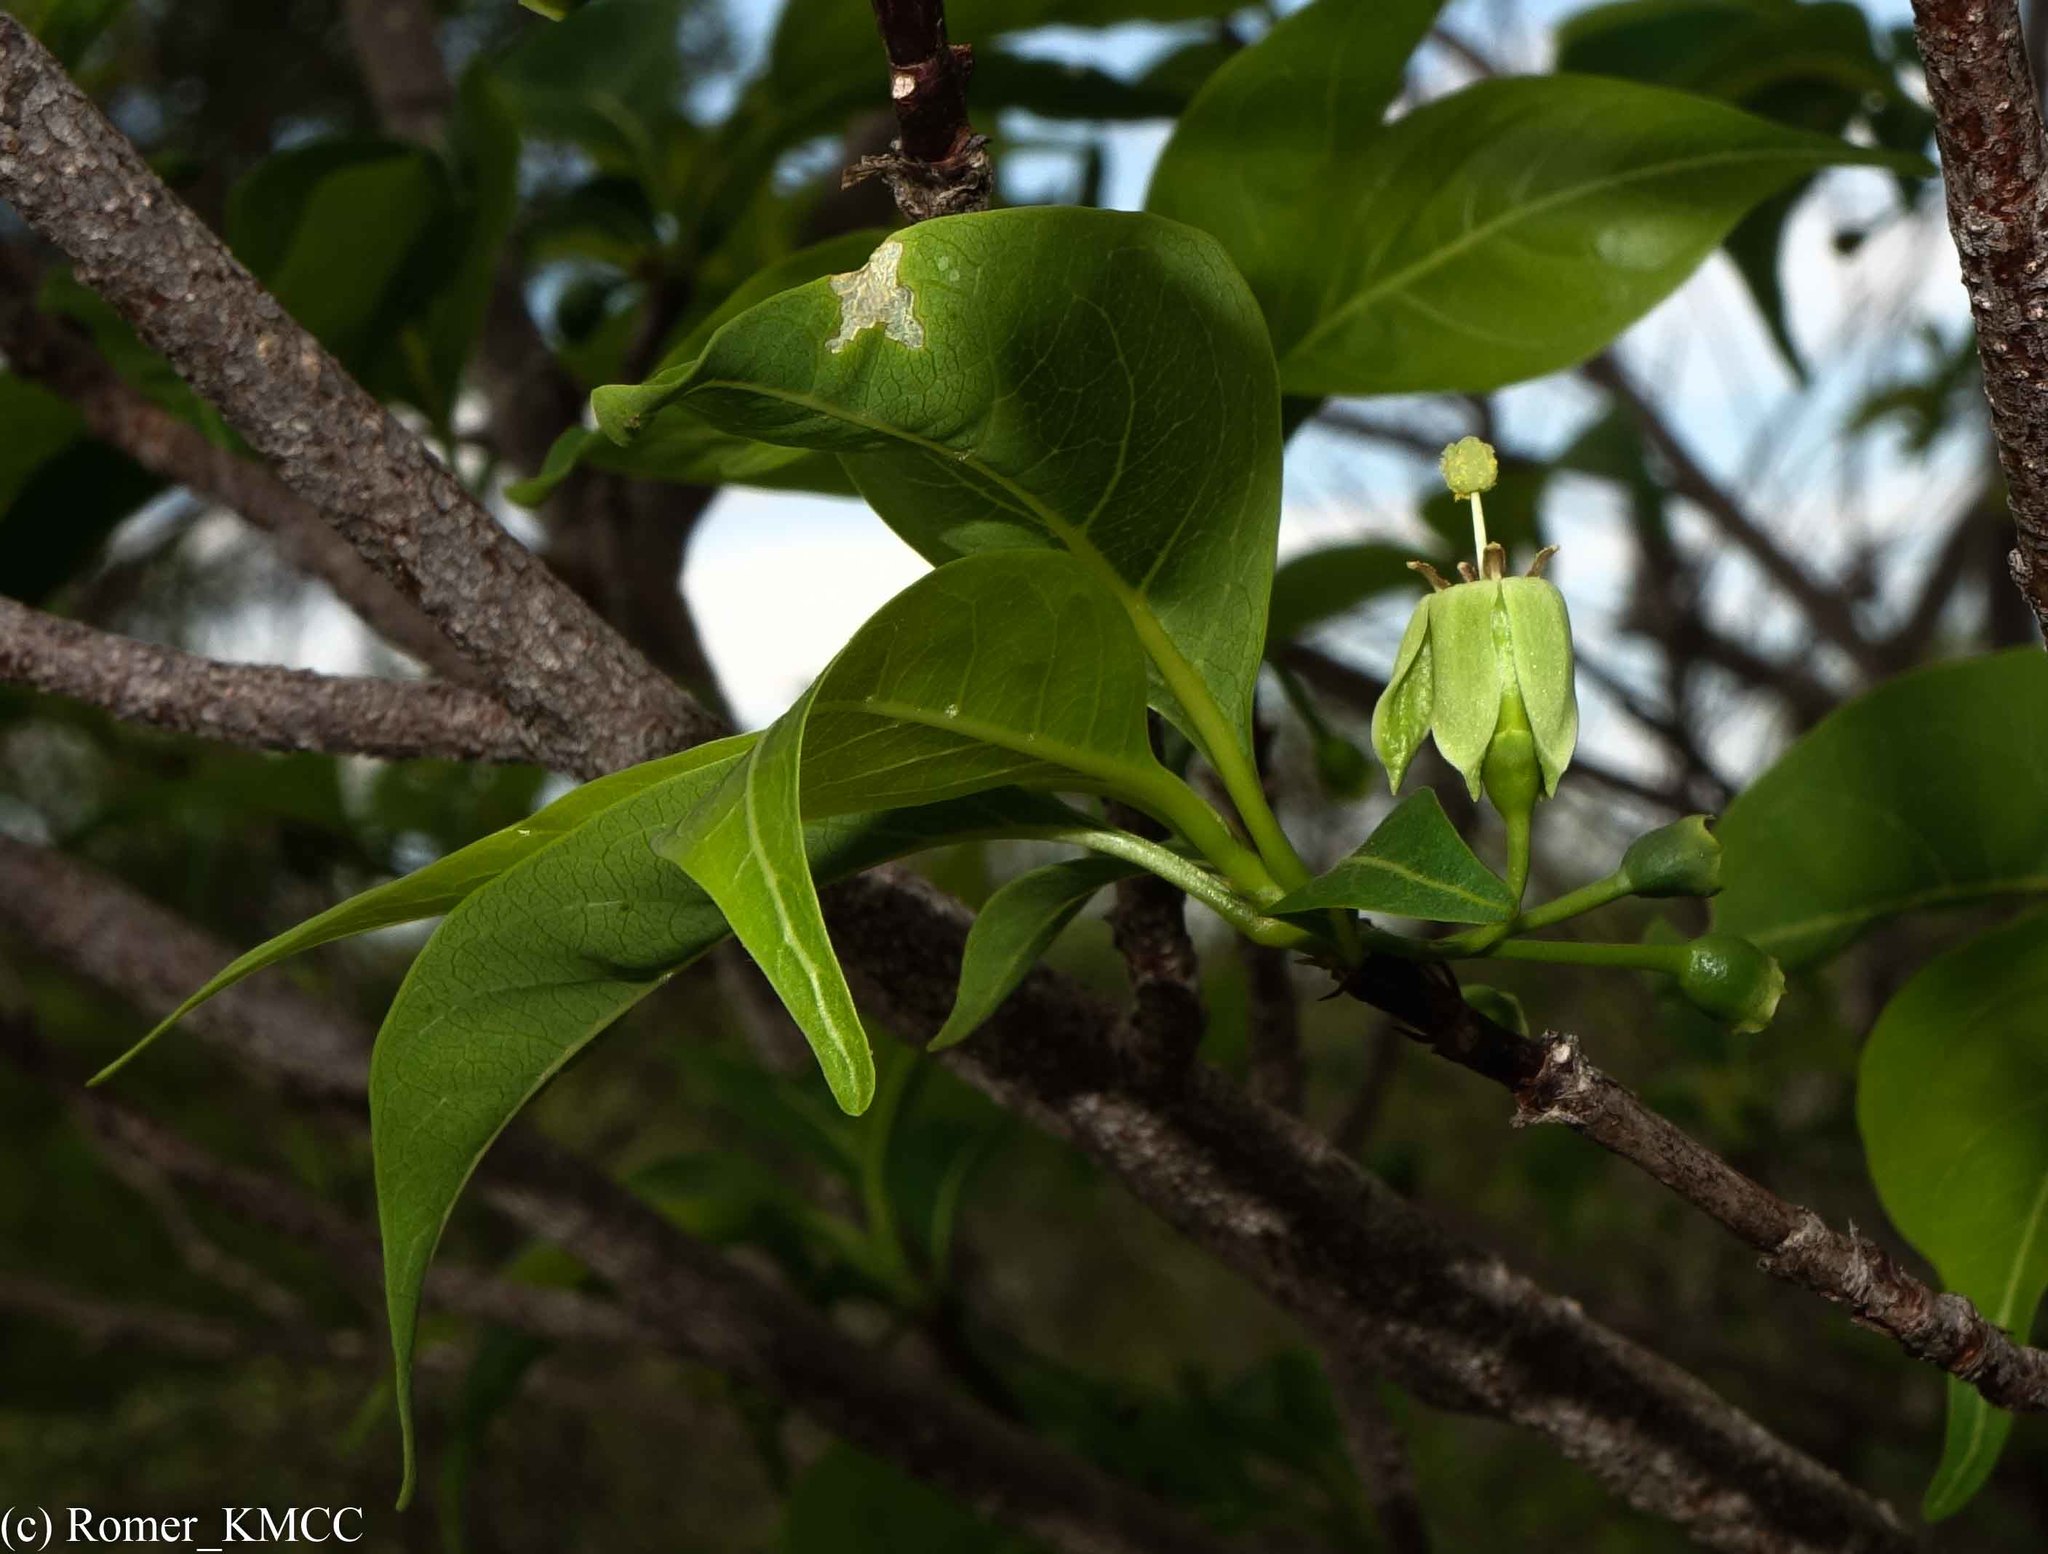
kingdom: Plantae
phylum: Tracheophyta
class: Magnoliopsida
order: Gentianales
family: Rubiaceae
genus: Rytigynia
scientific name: Rytigynia humbertii
